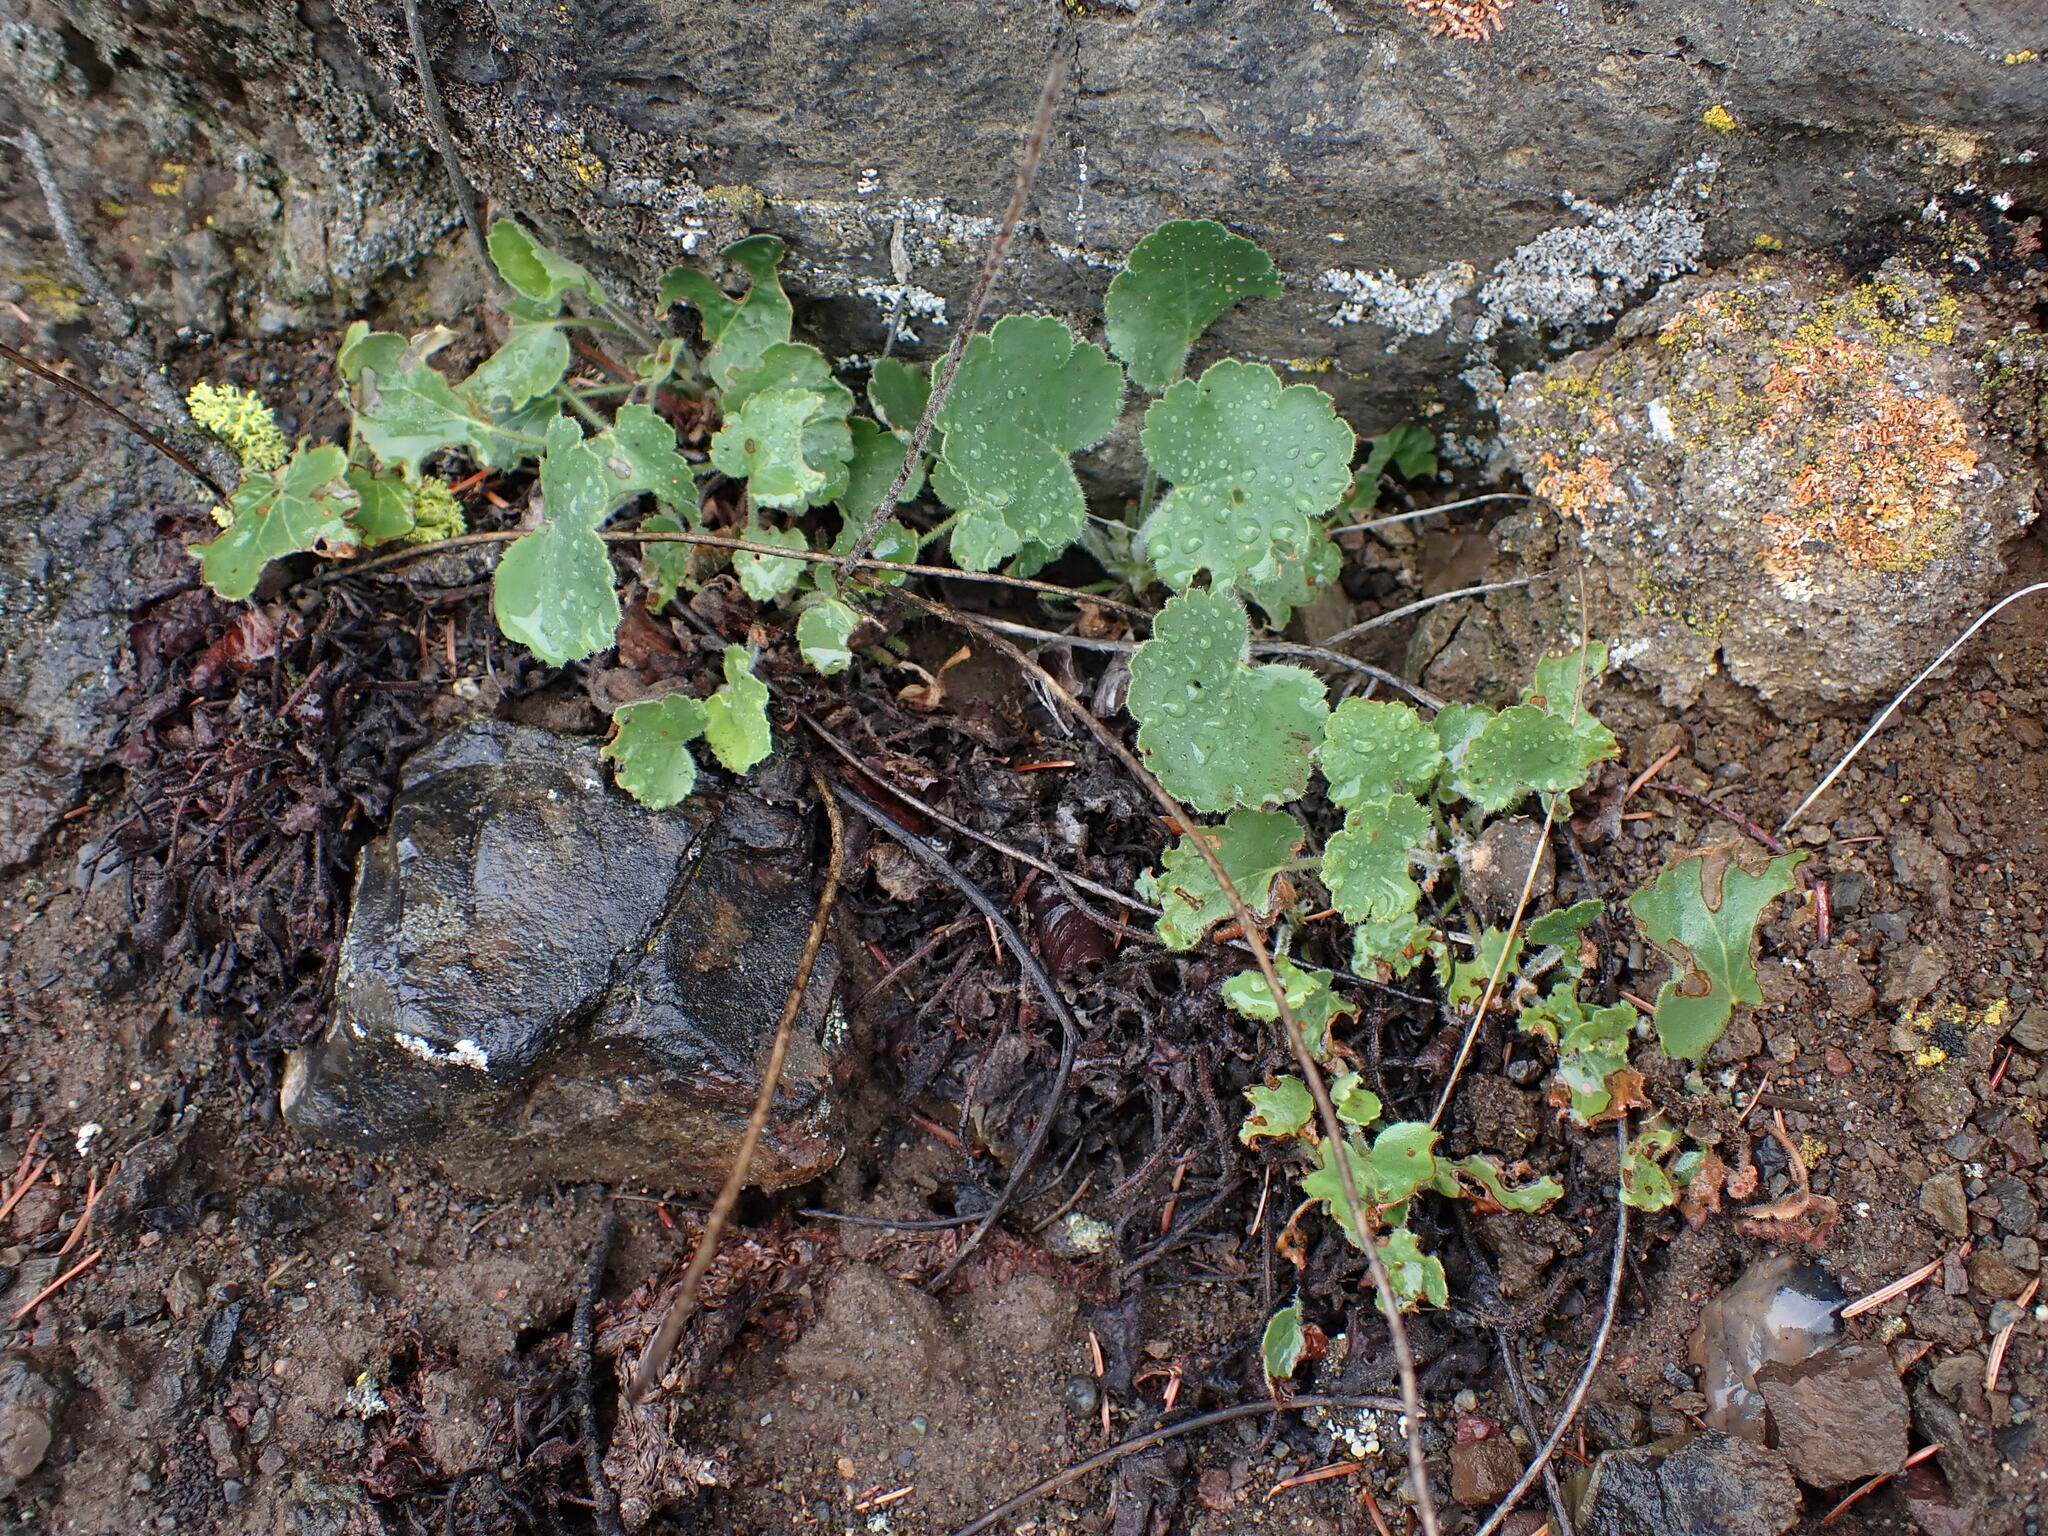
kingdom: Plantae
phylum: Tracheophyta
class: Magnoliopsida
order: Saxifragales
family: Saxifragaceae
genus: Heuchera
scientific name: Heuchera cylindrica
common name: Mat alumroot
